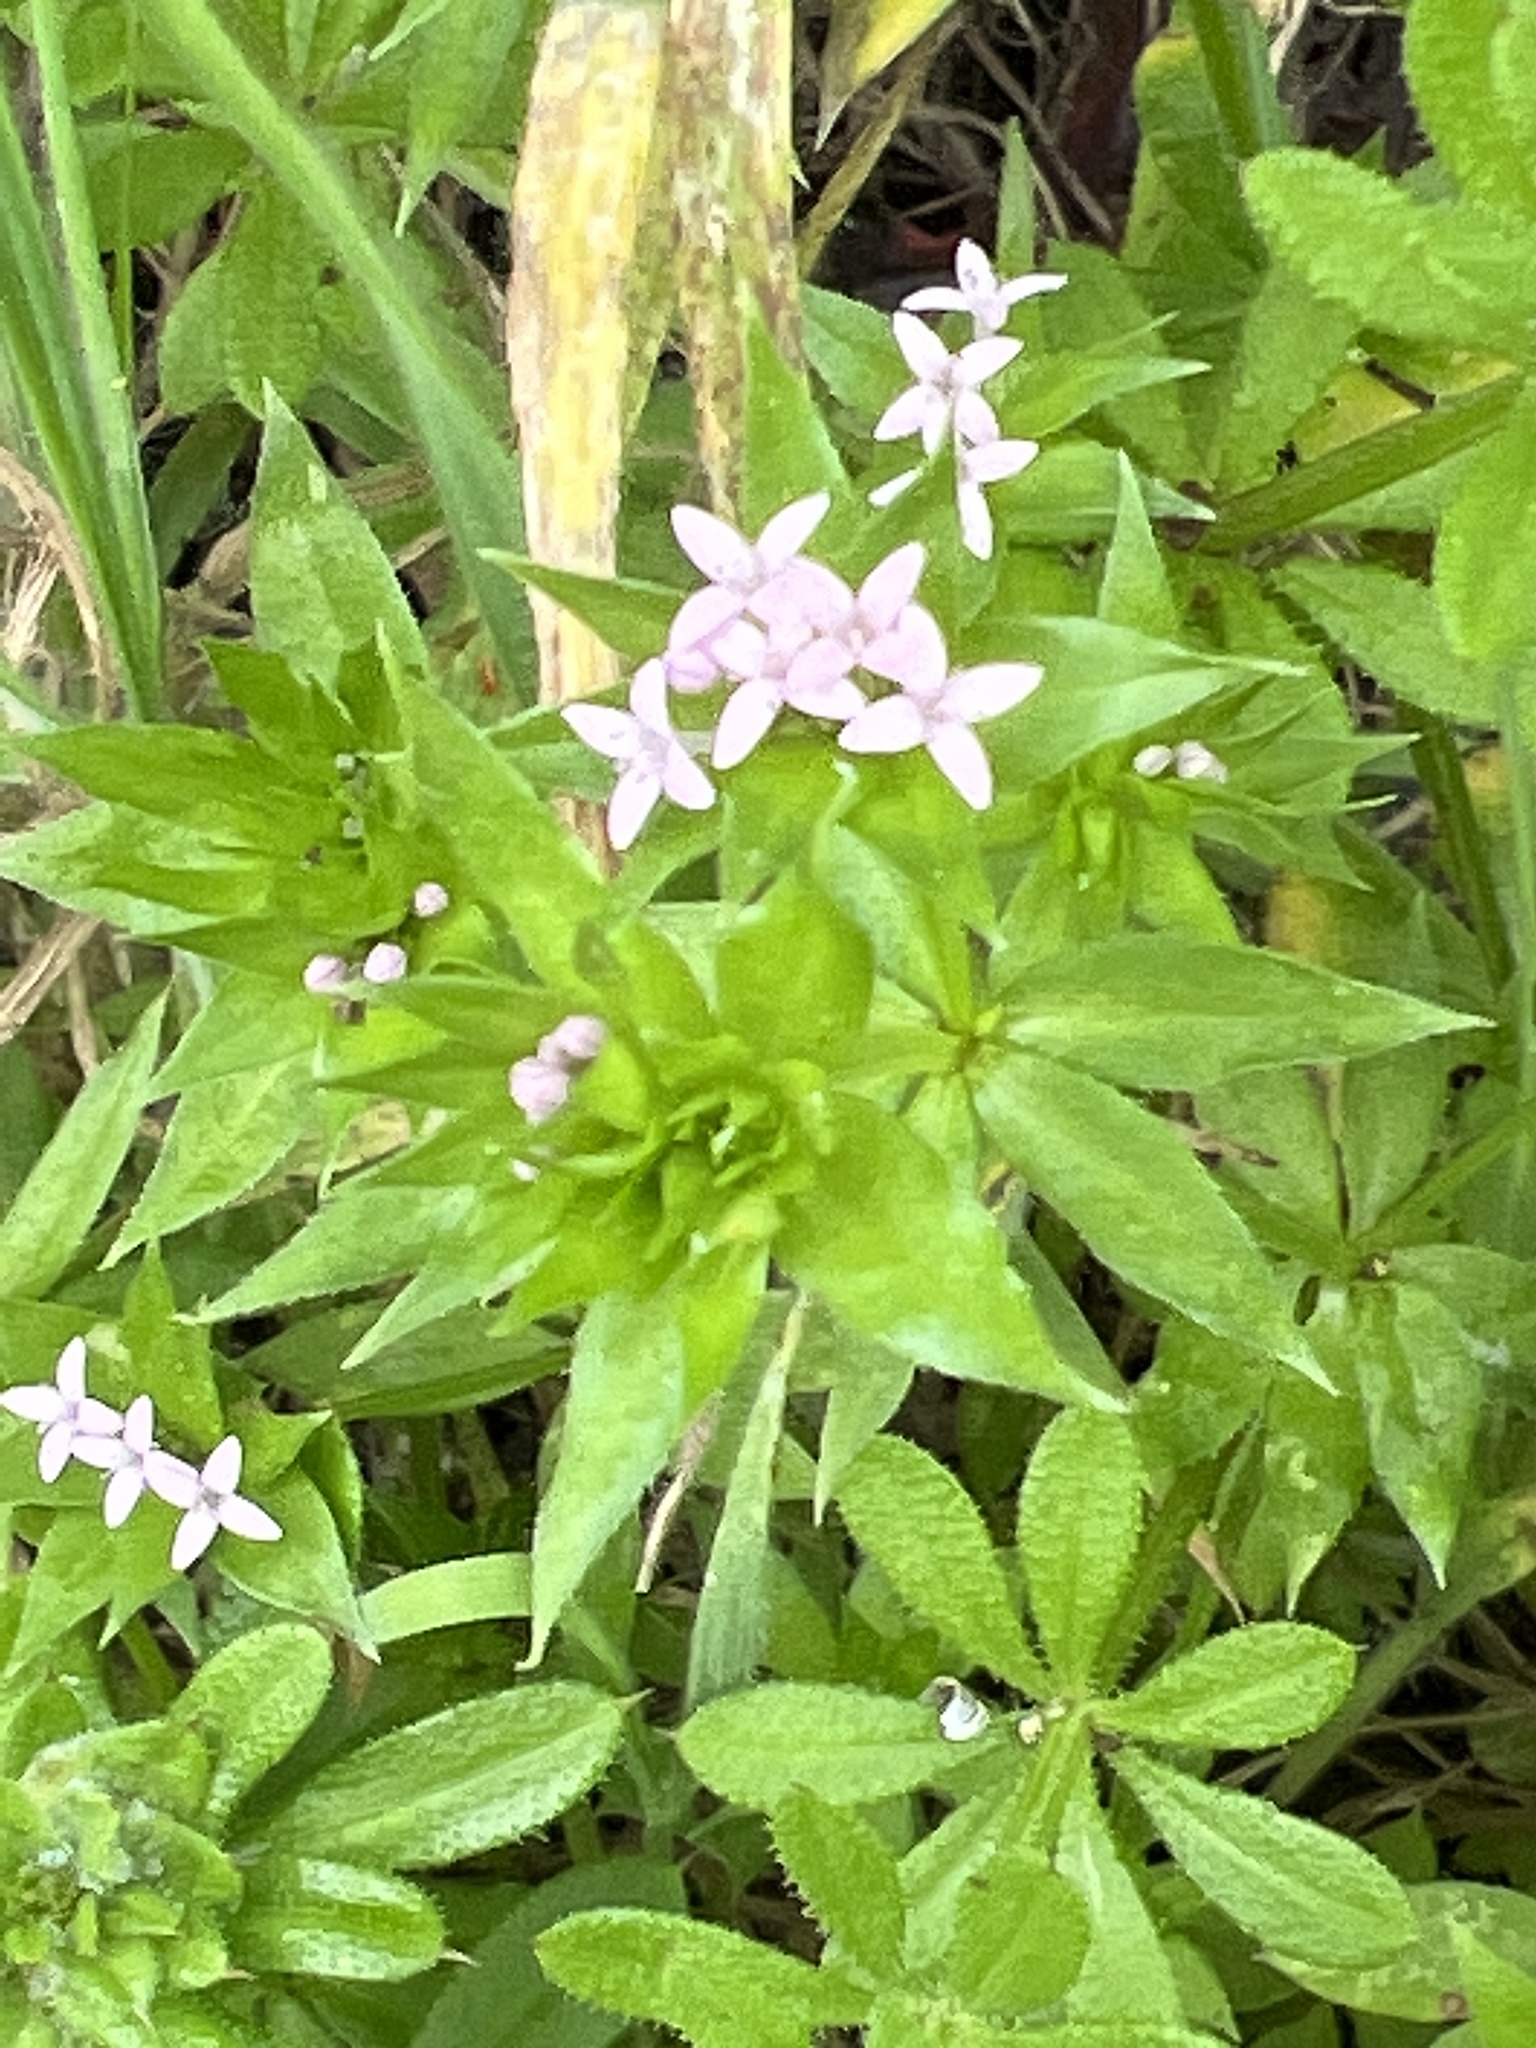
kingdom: Plantae
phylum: Tracheophyta
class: Magnoliopsida
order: Gentianales
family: Rubiaceae
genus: Sherardia
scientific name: Sherardia arvensis
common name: Field madder
